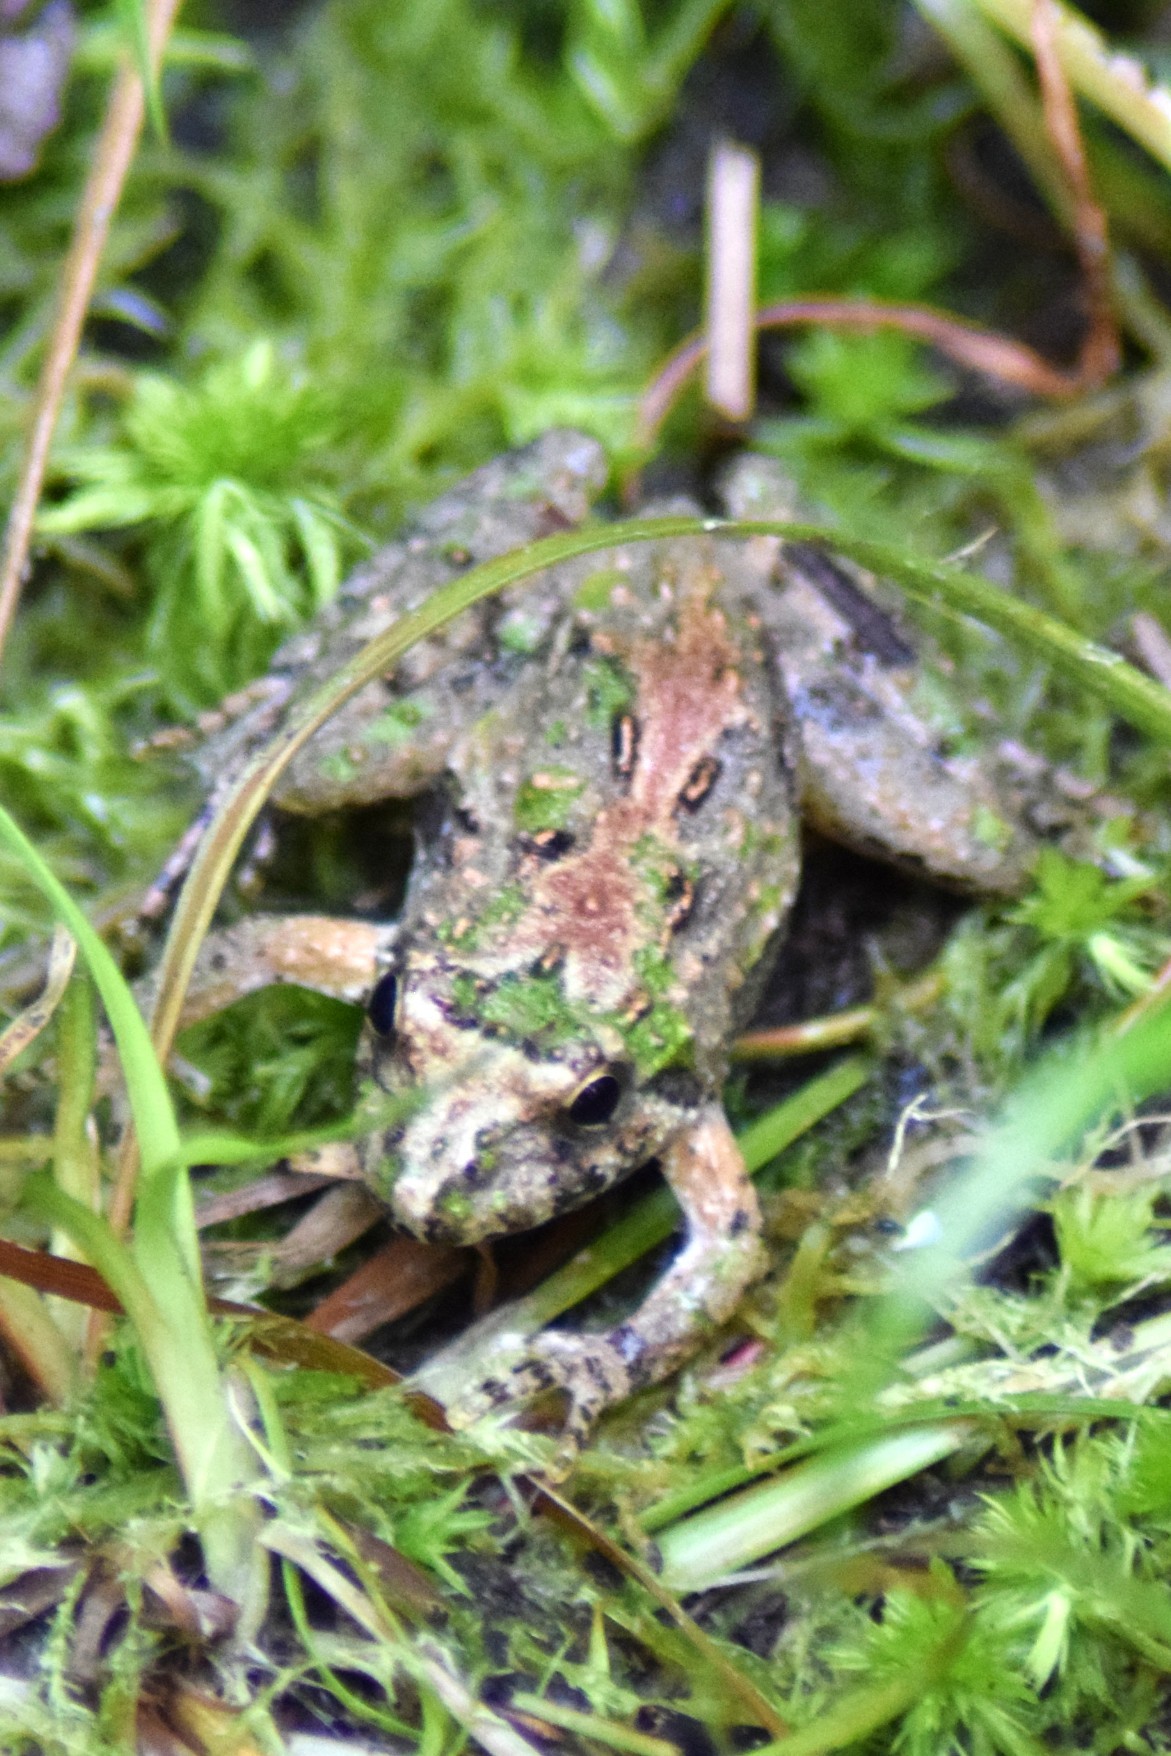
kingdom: Animalia
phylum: Chordata
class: Amphibia
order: Anura
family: Hylidae
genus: Acris
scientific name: Acris crepitans
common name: Northern cricket frog
